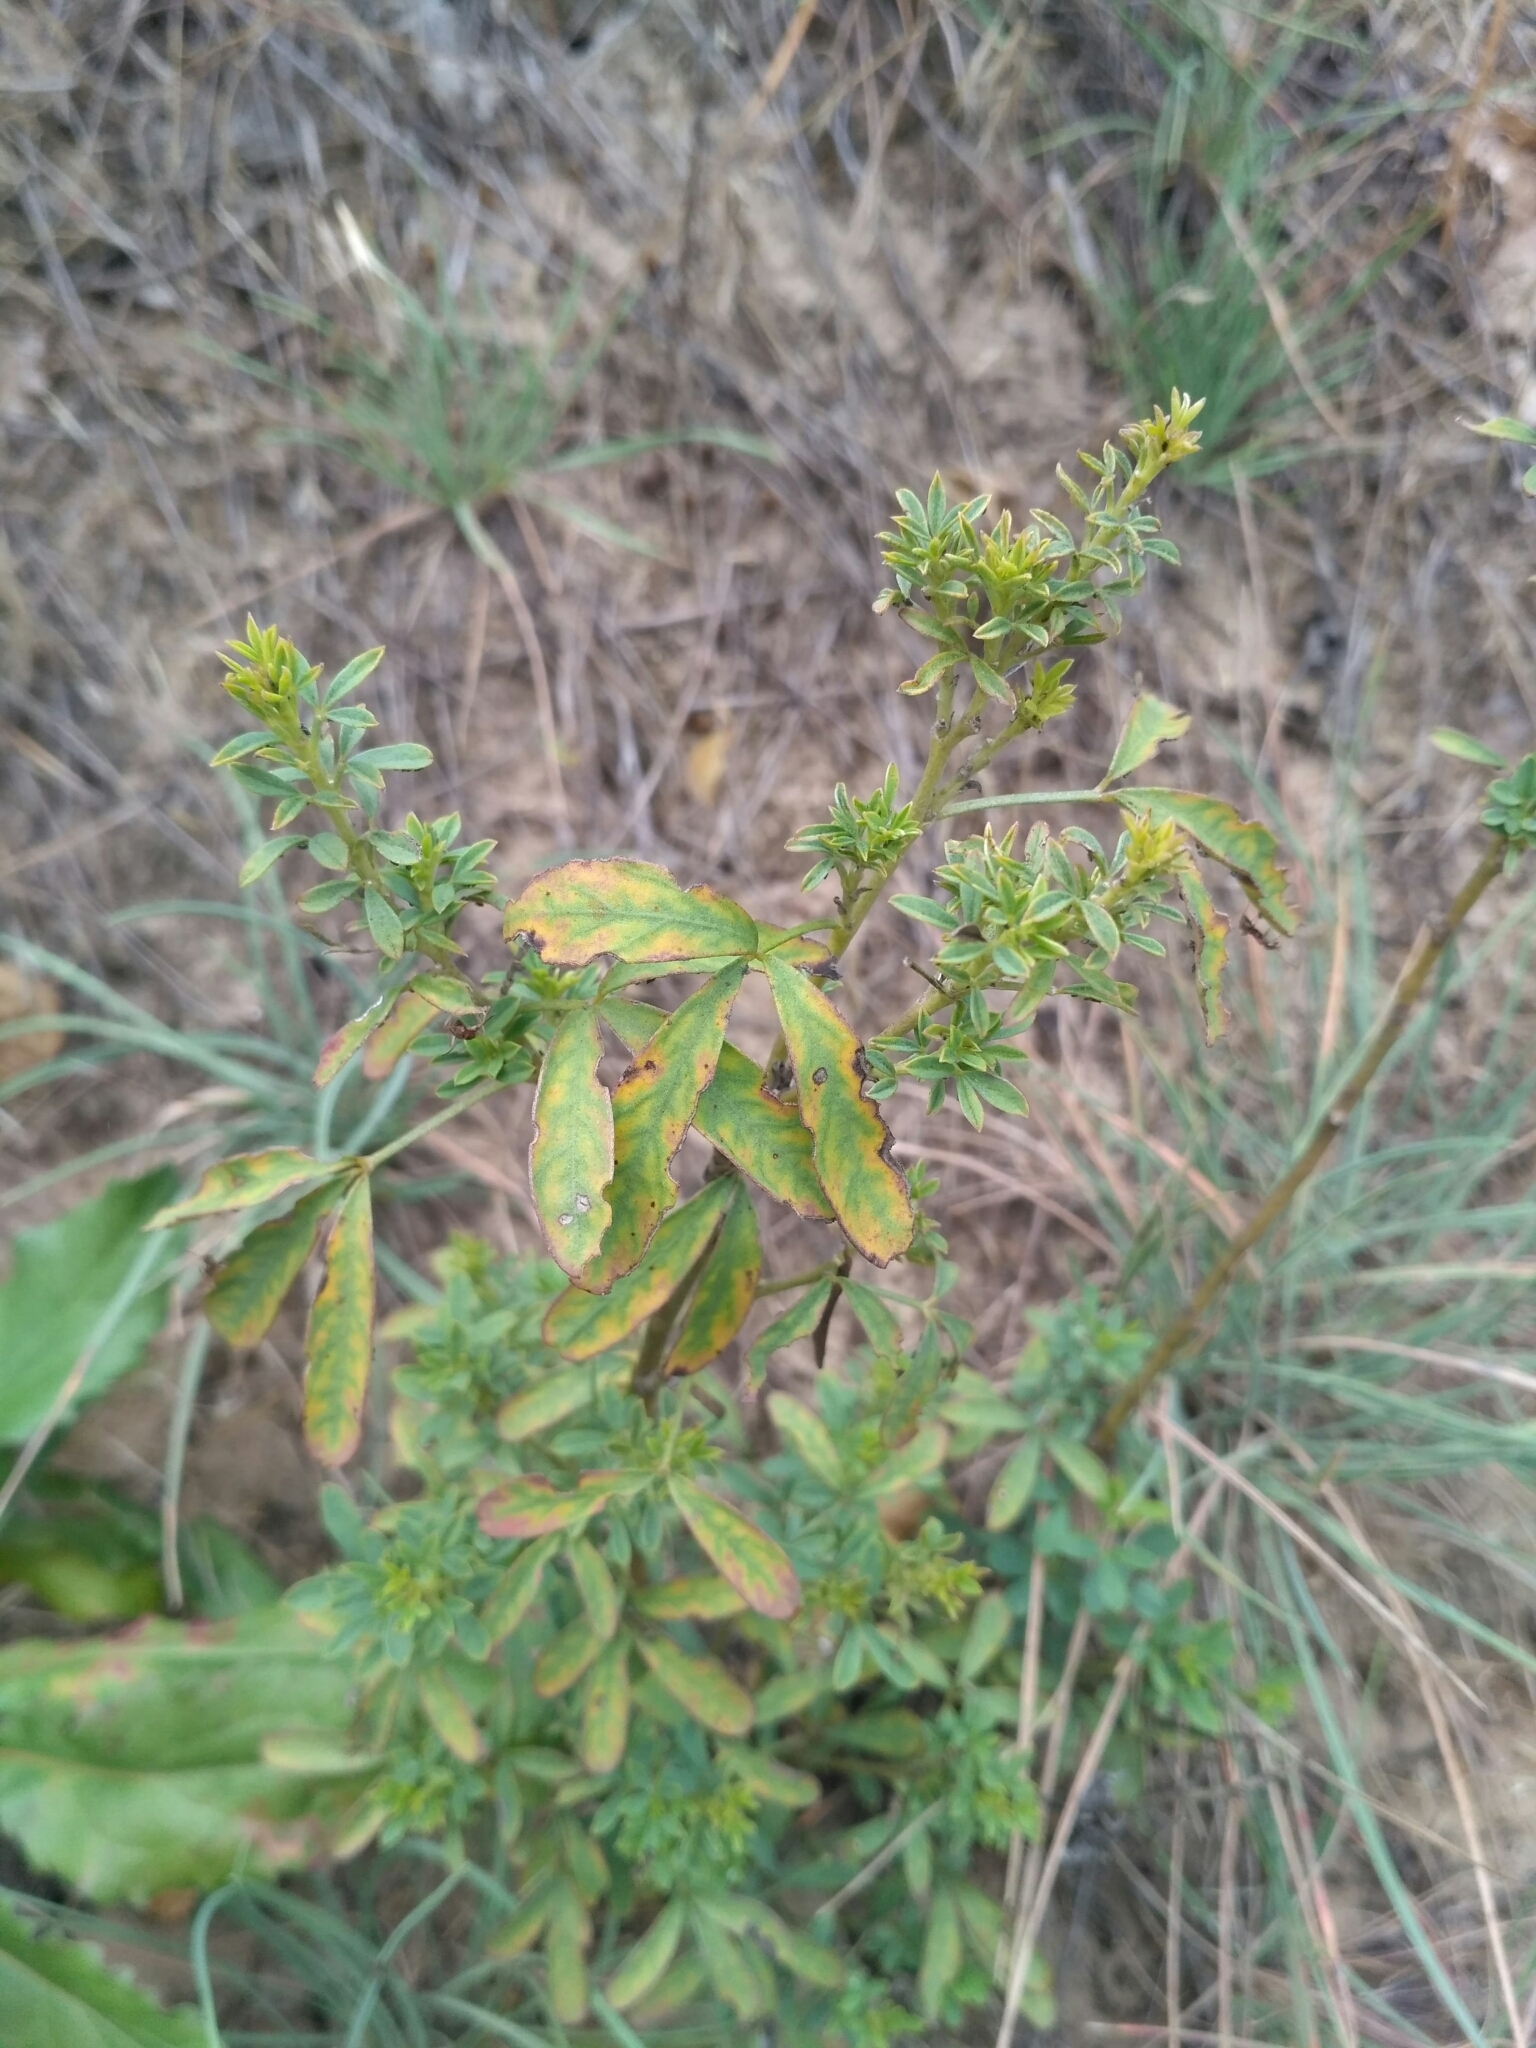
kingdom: Plantae
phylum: Tracheophyta
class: Magnoliopsida
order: Fabales
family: Fabaceae
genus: Chamaecytisus
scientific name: Chamaecytisus ruthenicus
